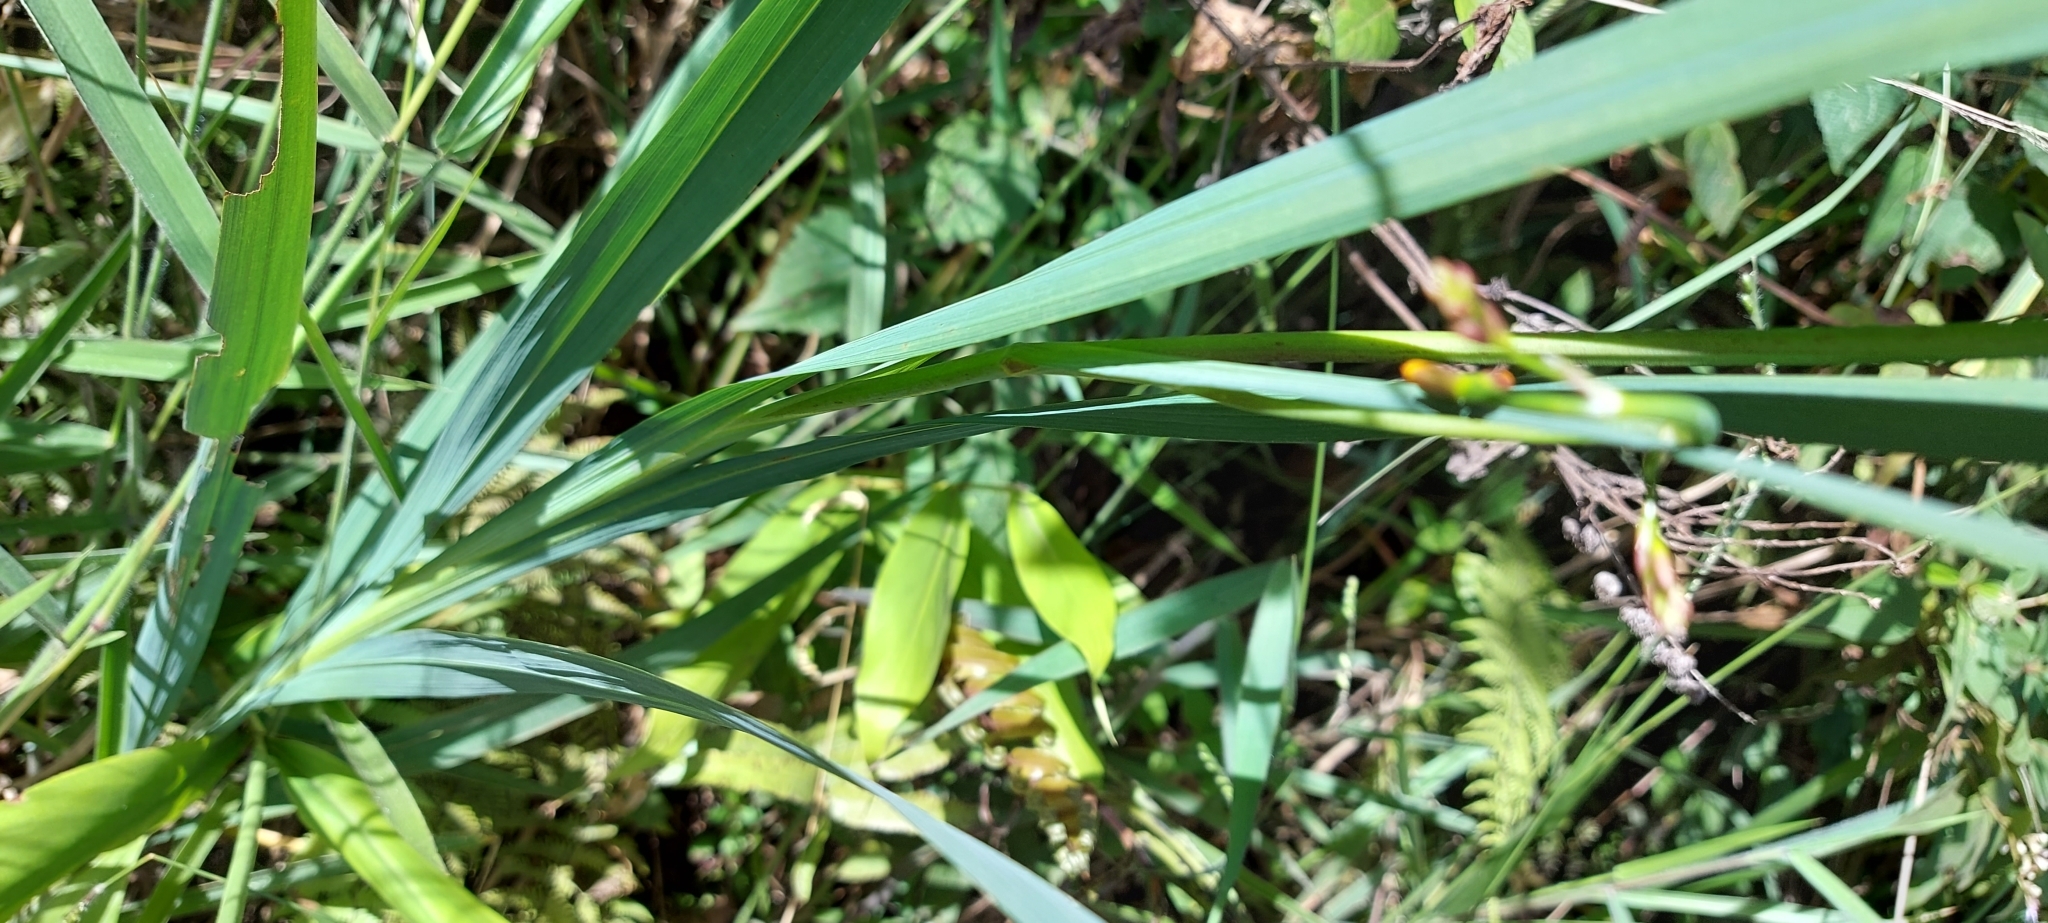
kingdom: Plantae
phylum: Tracheophyta
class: Liliopsida
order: Asparagales
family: Iridaceae
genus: Crocosmia
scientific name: Crocosmia crocosmiiflora
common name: Montbretia
